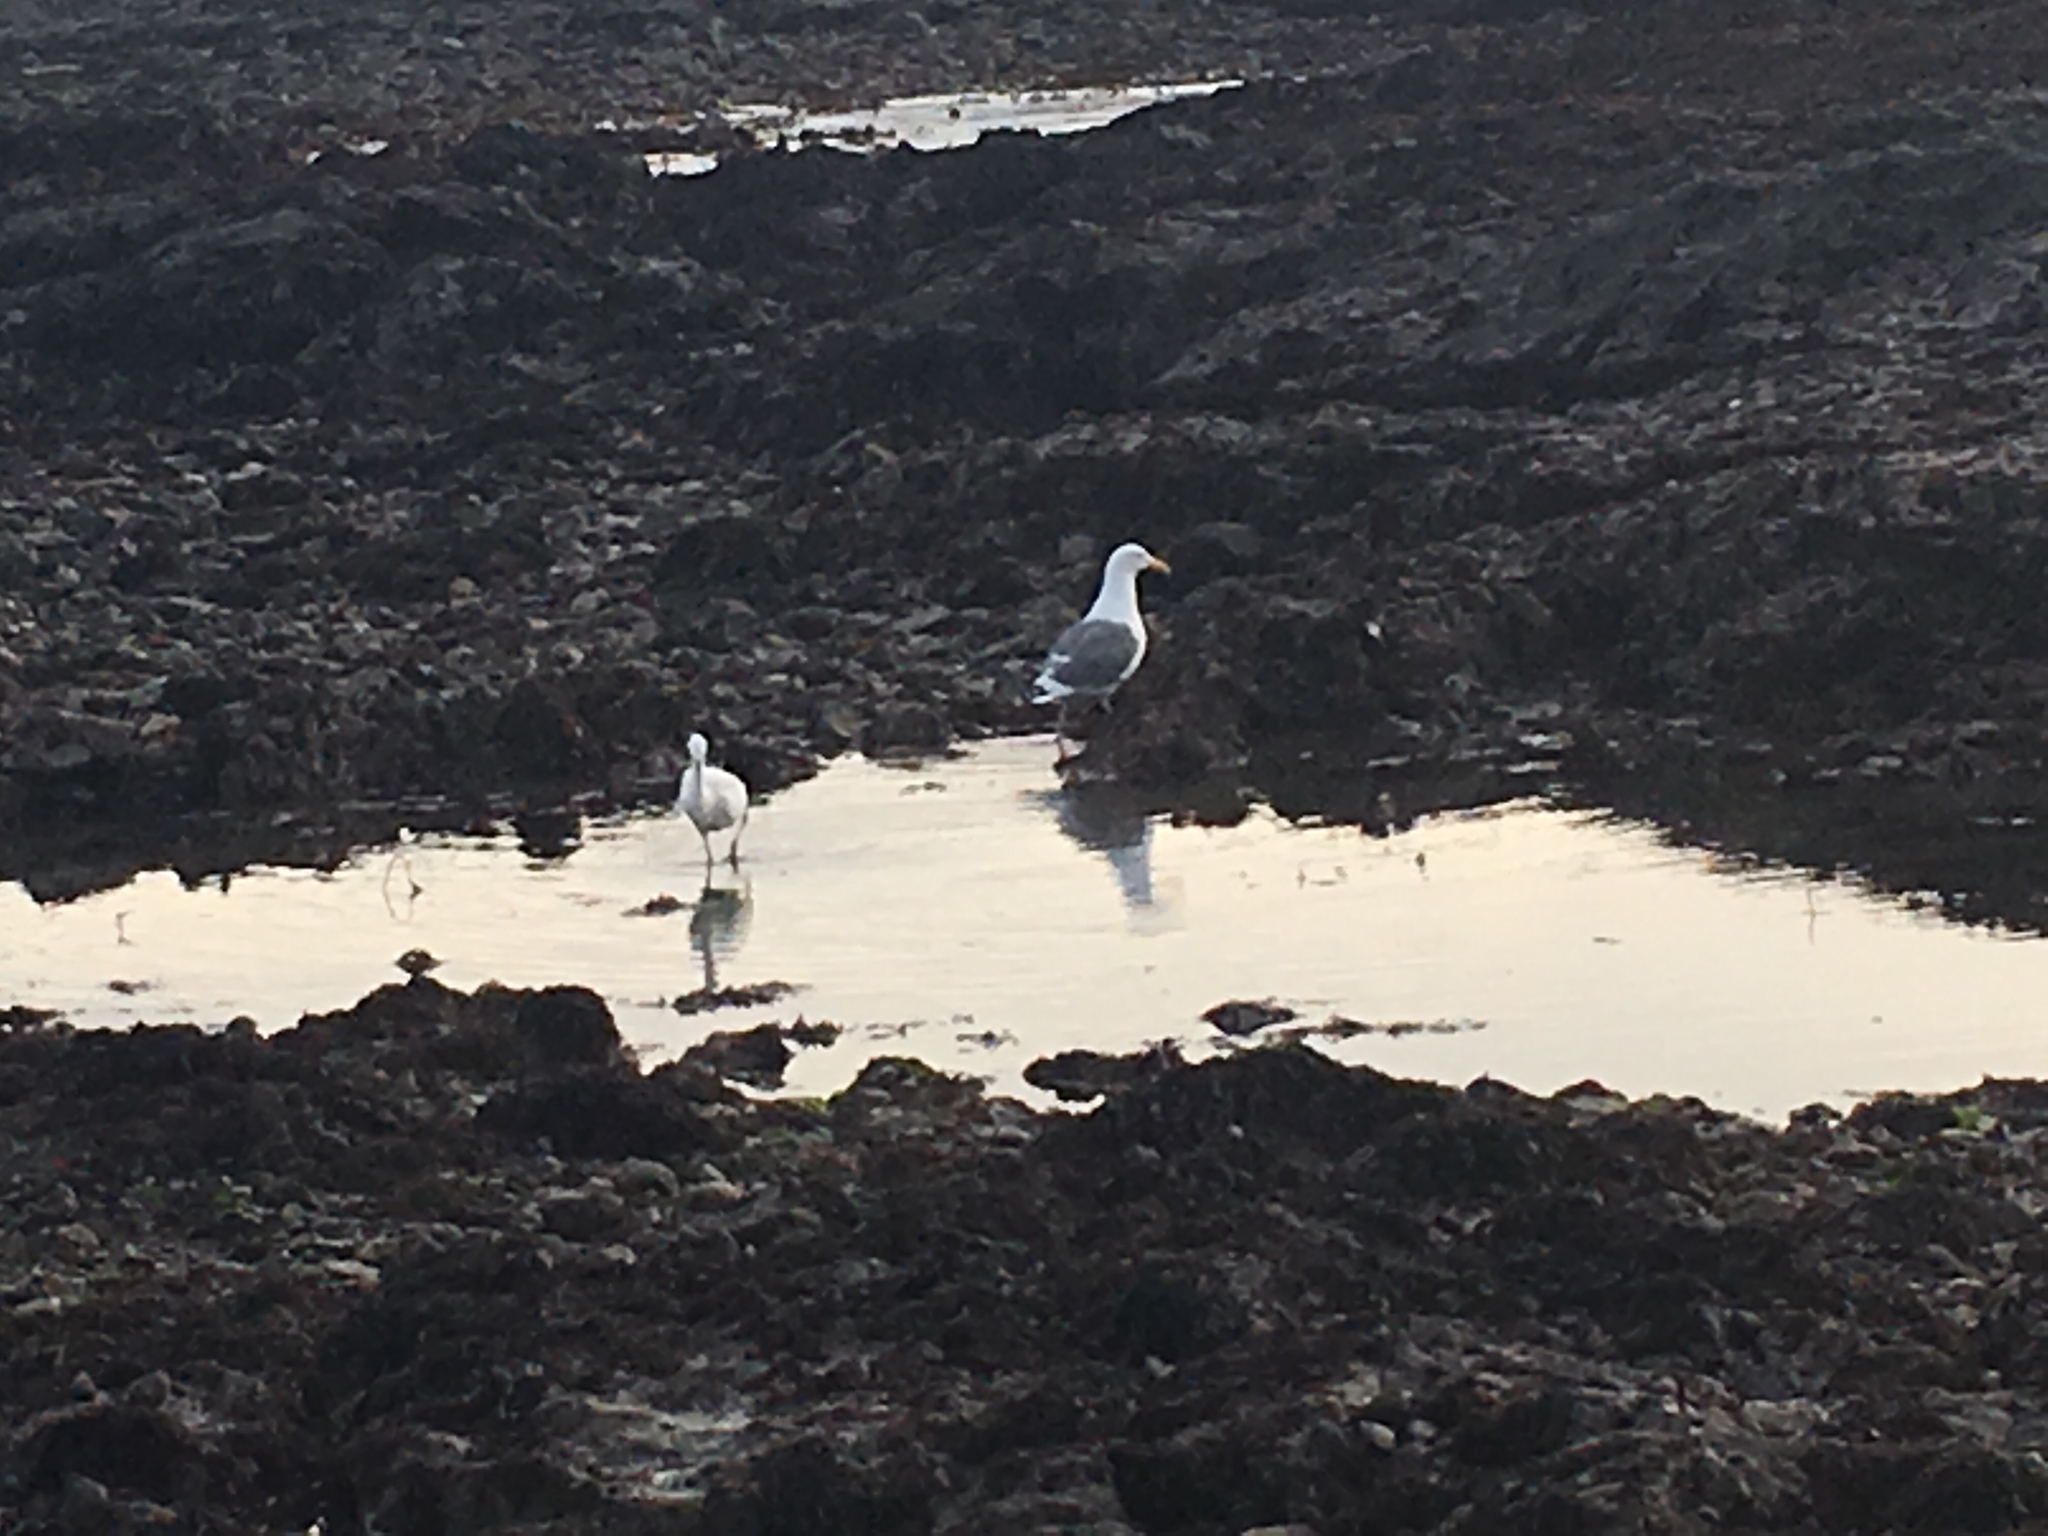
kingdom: Animalia
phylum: Chordata
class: Aves
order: Pelecaniformes
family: Ardeidae
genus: Egretta
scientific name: Egretta thula
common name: Snowy egret
